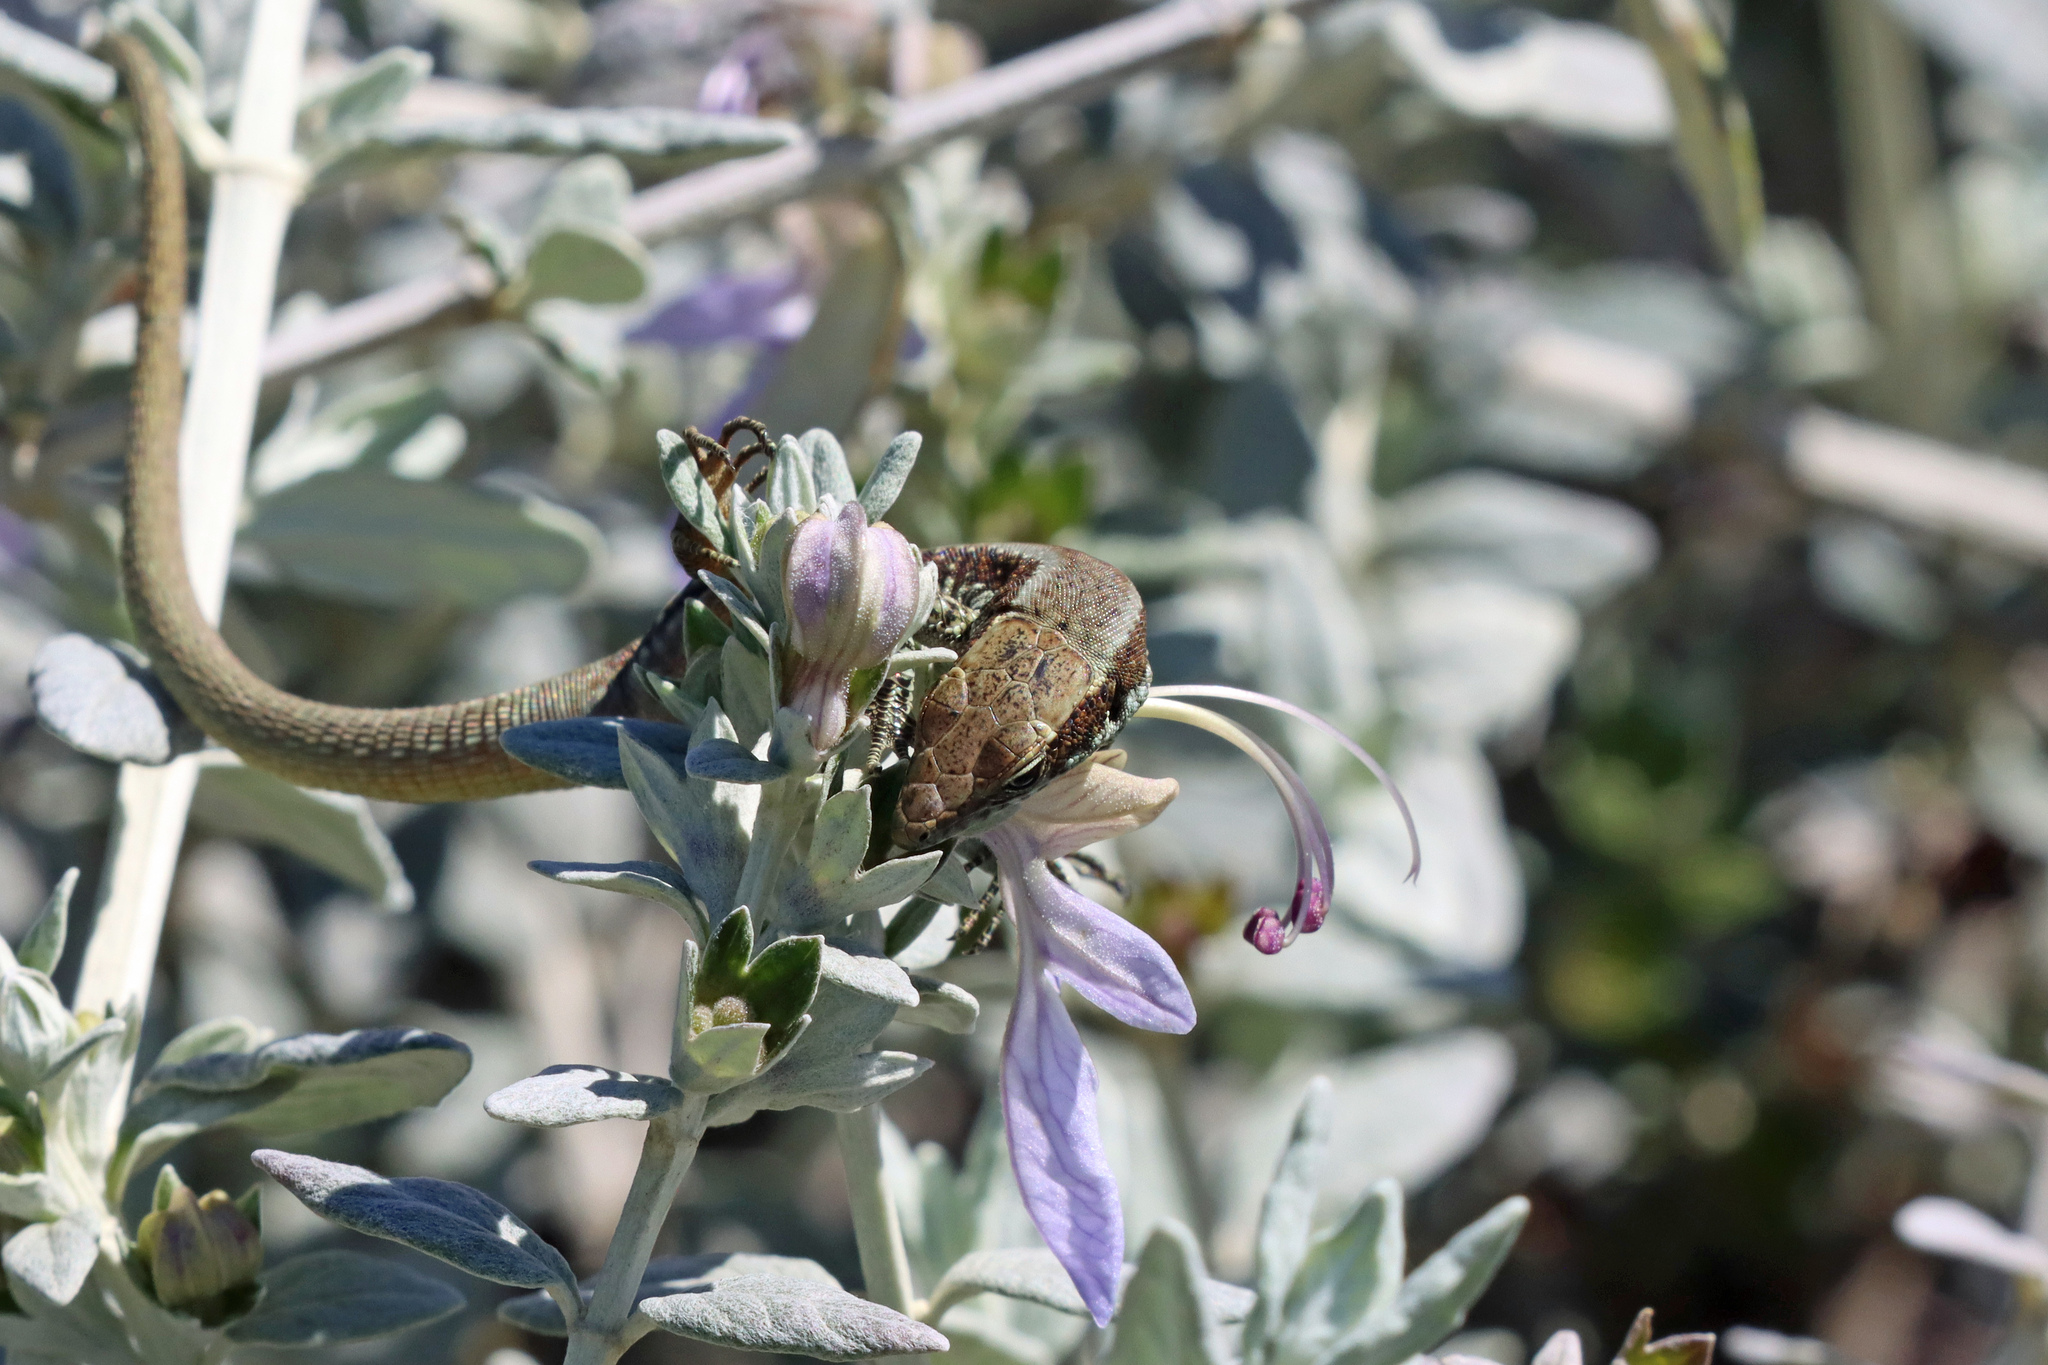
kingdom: Animalia
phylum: Chordata
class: Squamata
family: Lacertidae
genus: Teira
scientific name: Teira dugesii
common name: Madeira lizard
